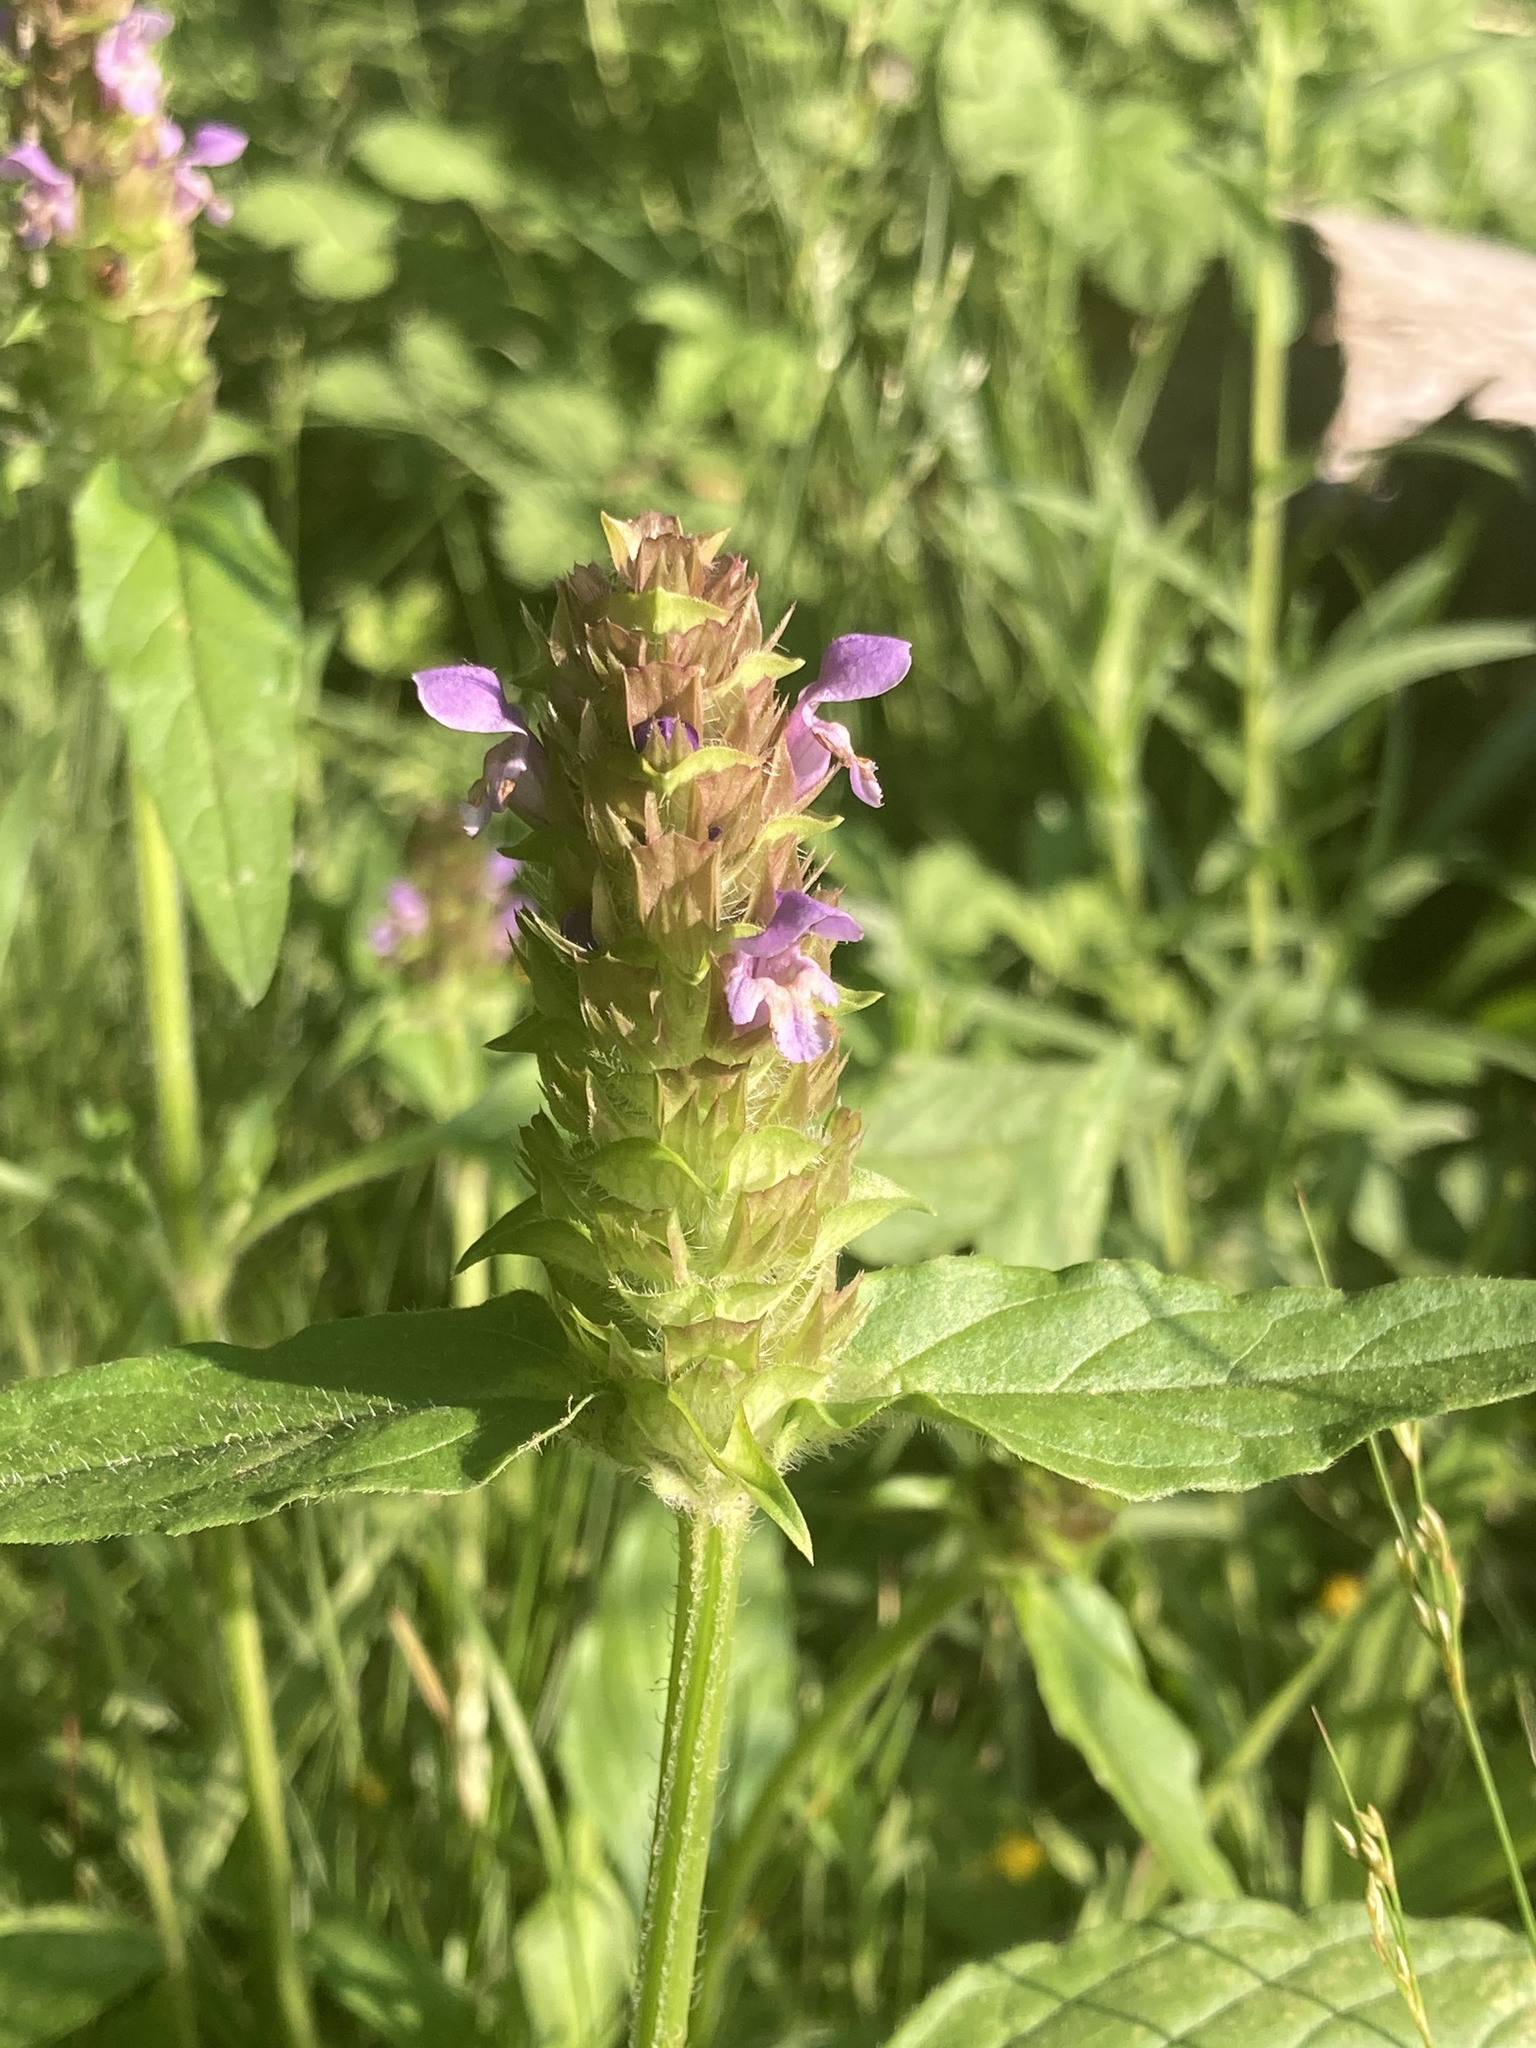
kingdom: Plantae
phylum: Tracheophyta
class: Magnoliopsida
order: Lamiales
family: Lamiaceae
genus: Prunella
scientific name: Prunella vulgaris
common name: Heal-all
